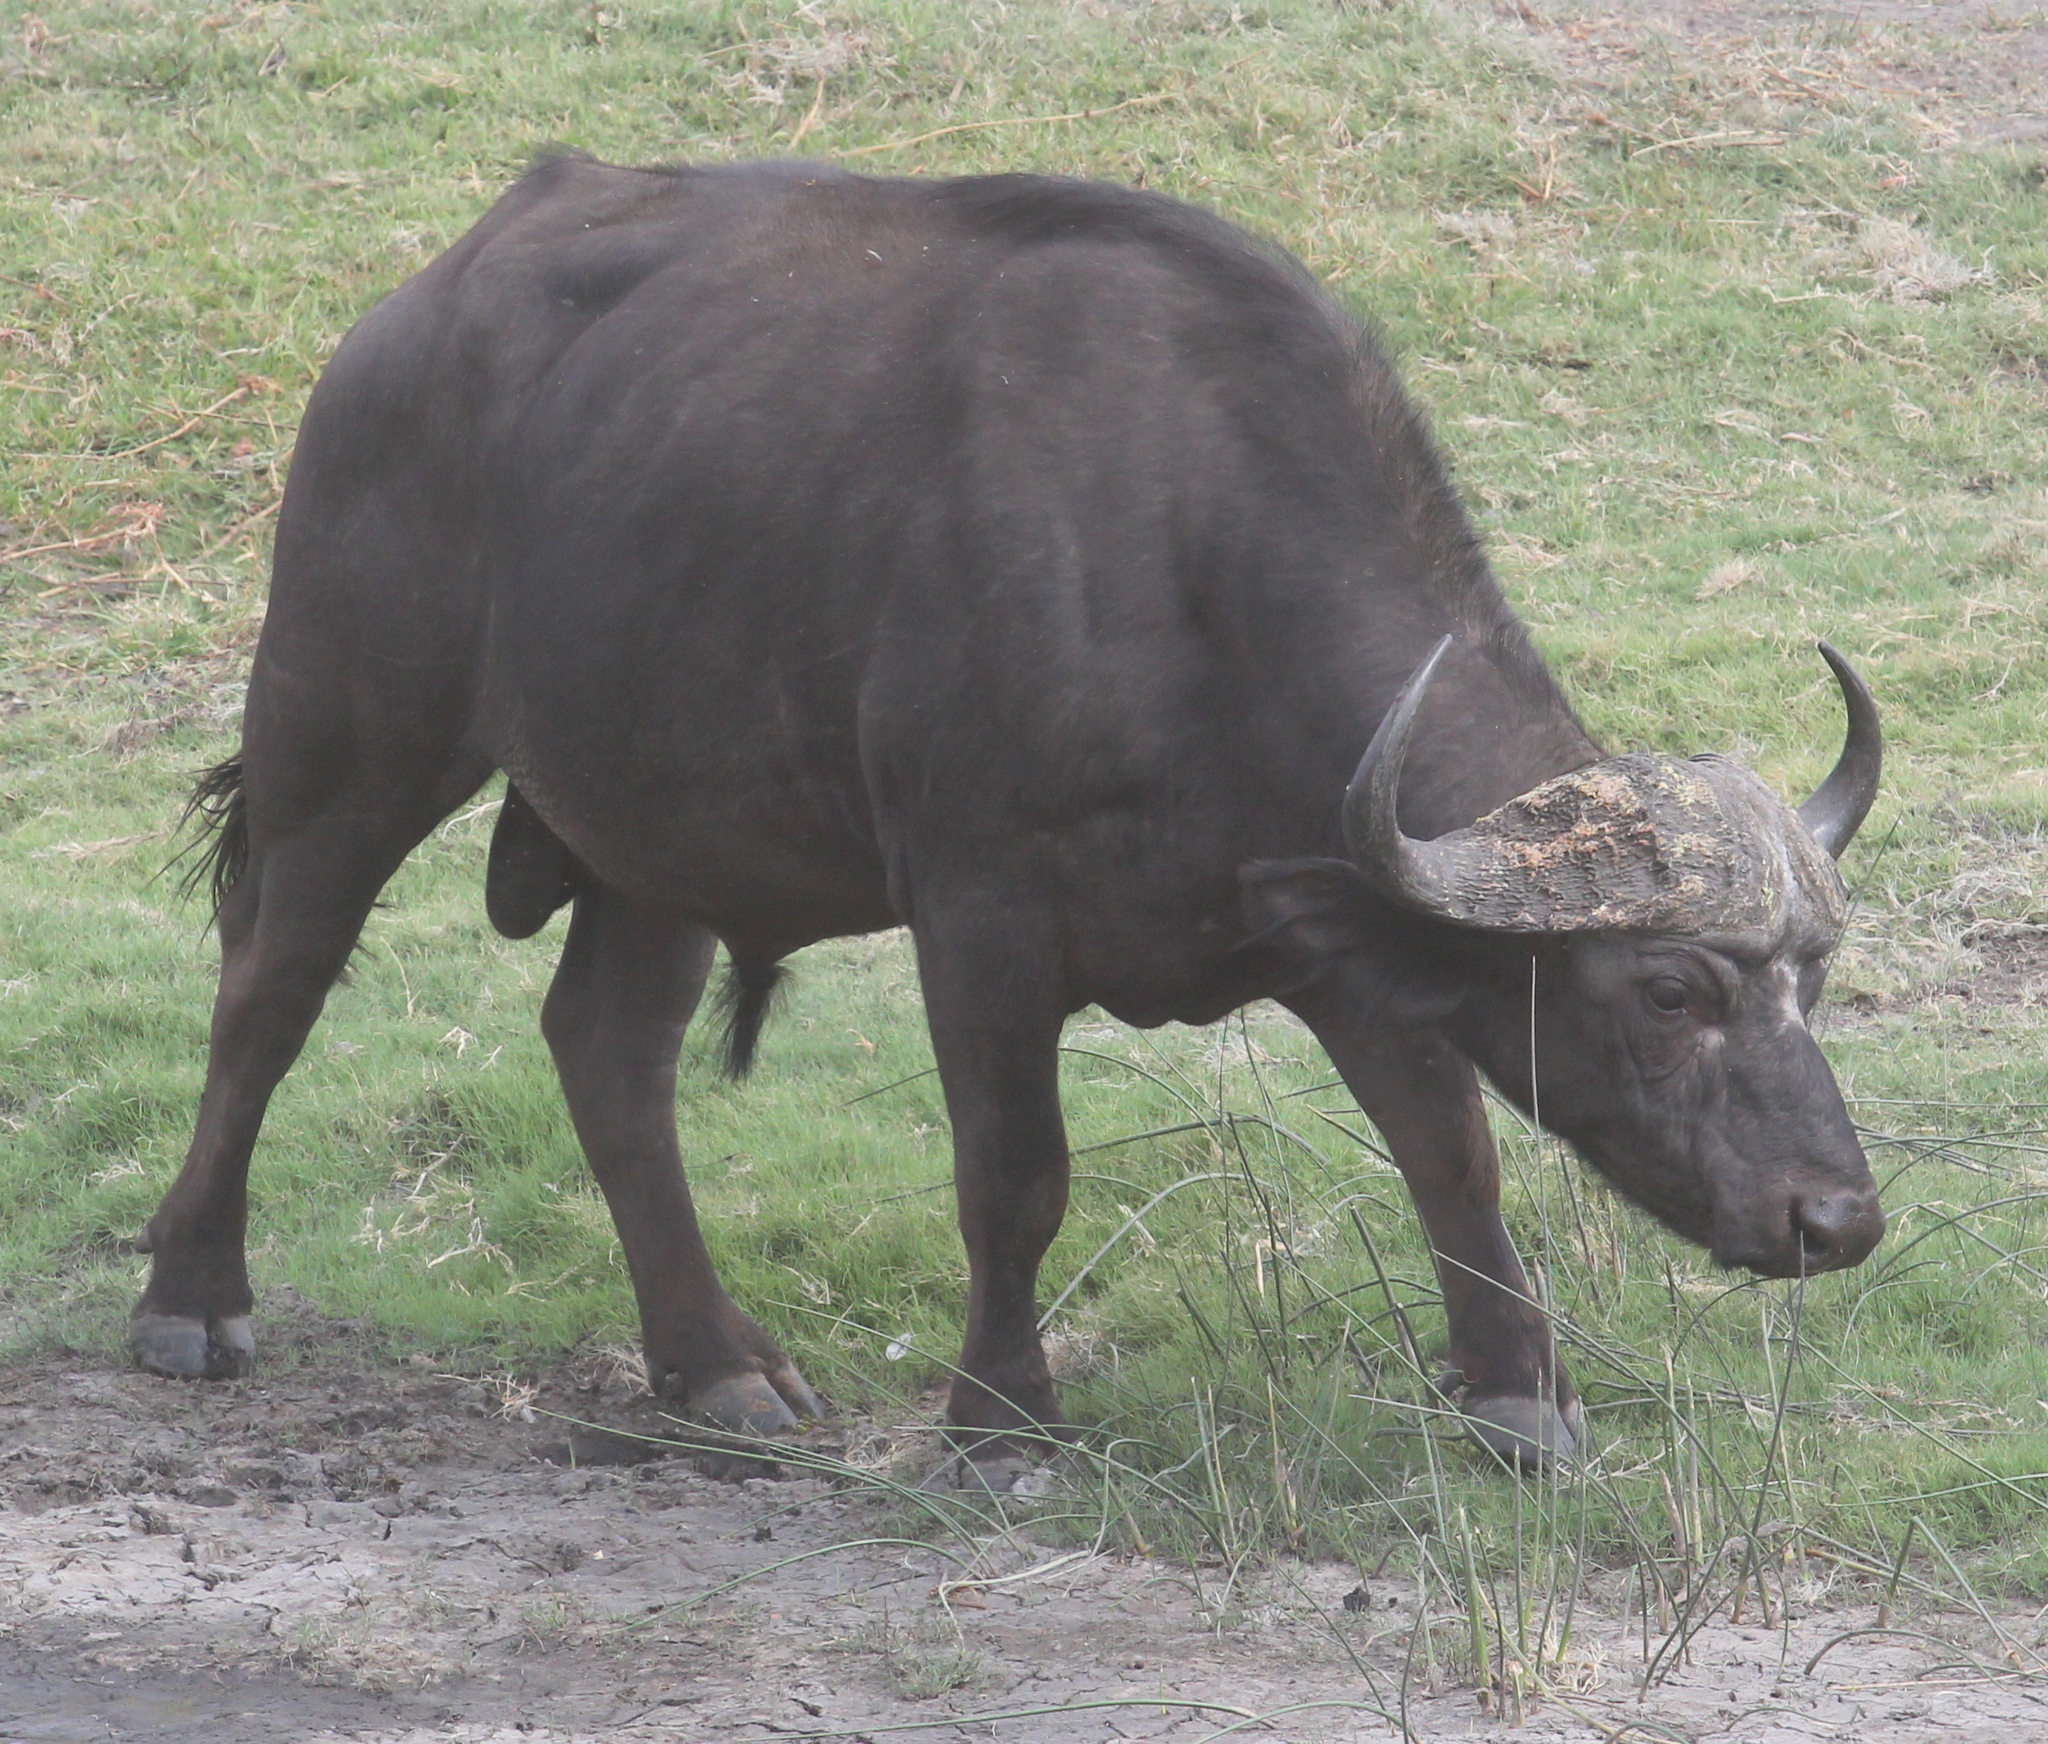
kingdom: Animalia
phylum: Chordata
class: Mammalia
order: Artiodactyla
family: Bovidae
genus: Syncerus
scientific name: Syncerus caffer
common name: African buffalo
